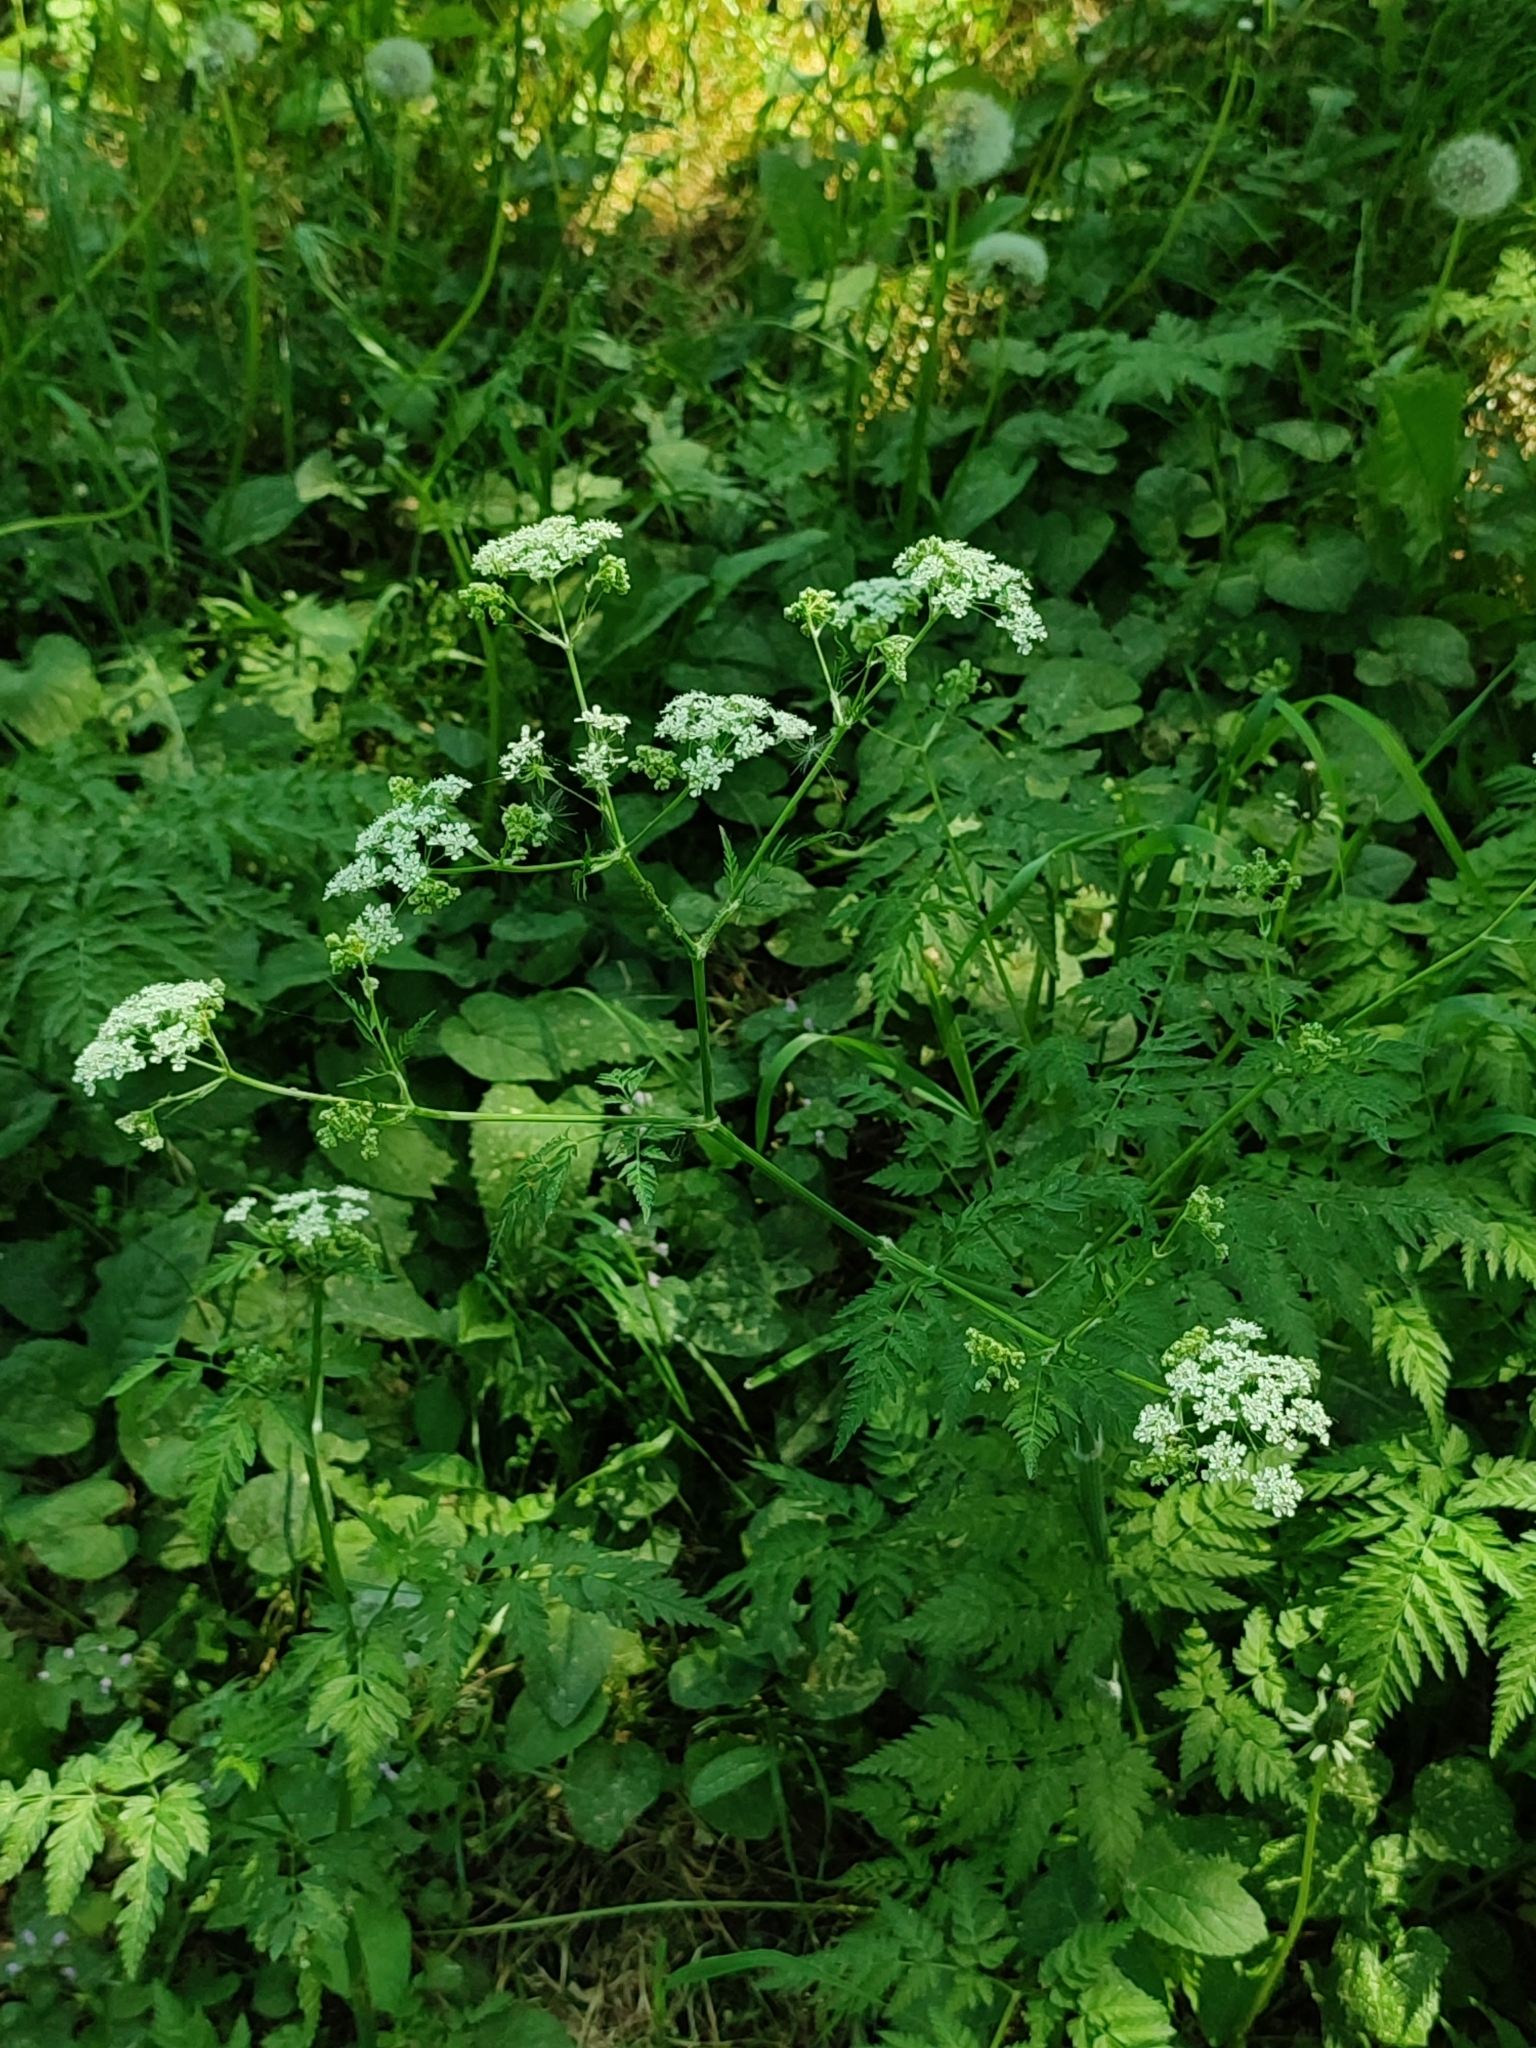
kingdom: Plantae
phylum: Tracheophyta
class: Magnoliopsida
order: Apiales
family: Apiaceae
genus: Anthriscus
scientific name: Anthriscus sylvestris
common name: Cow parsley
